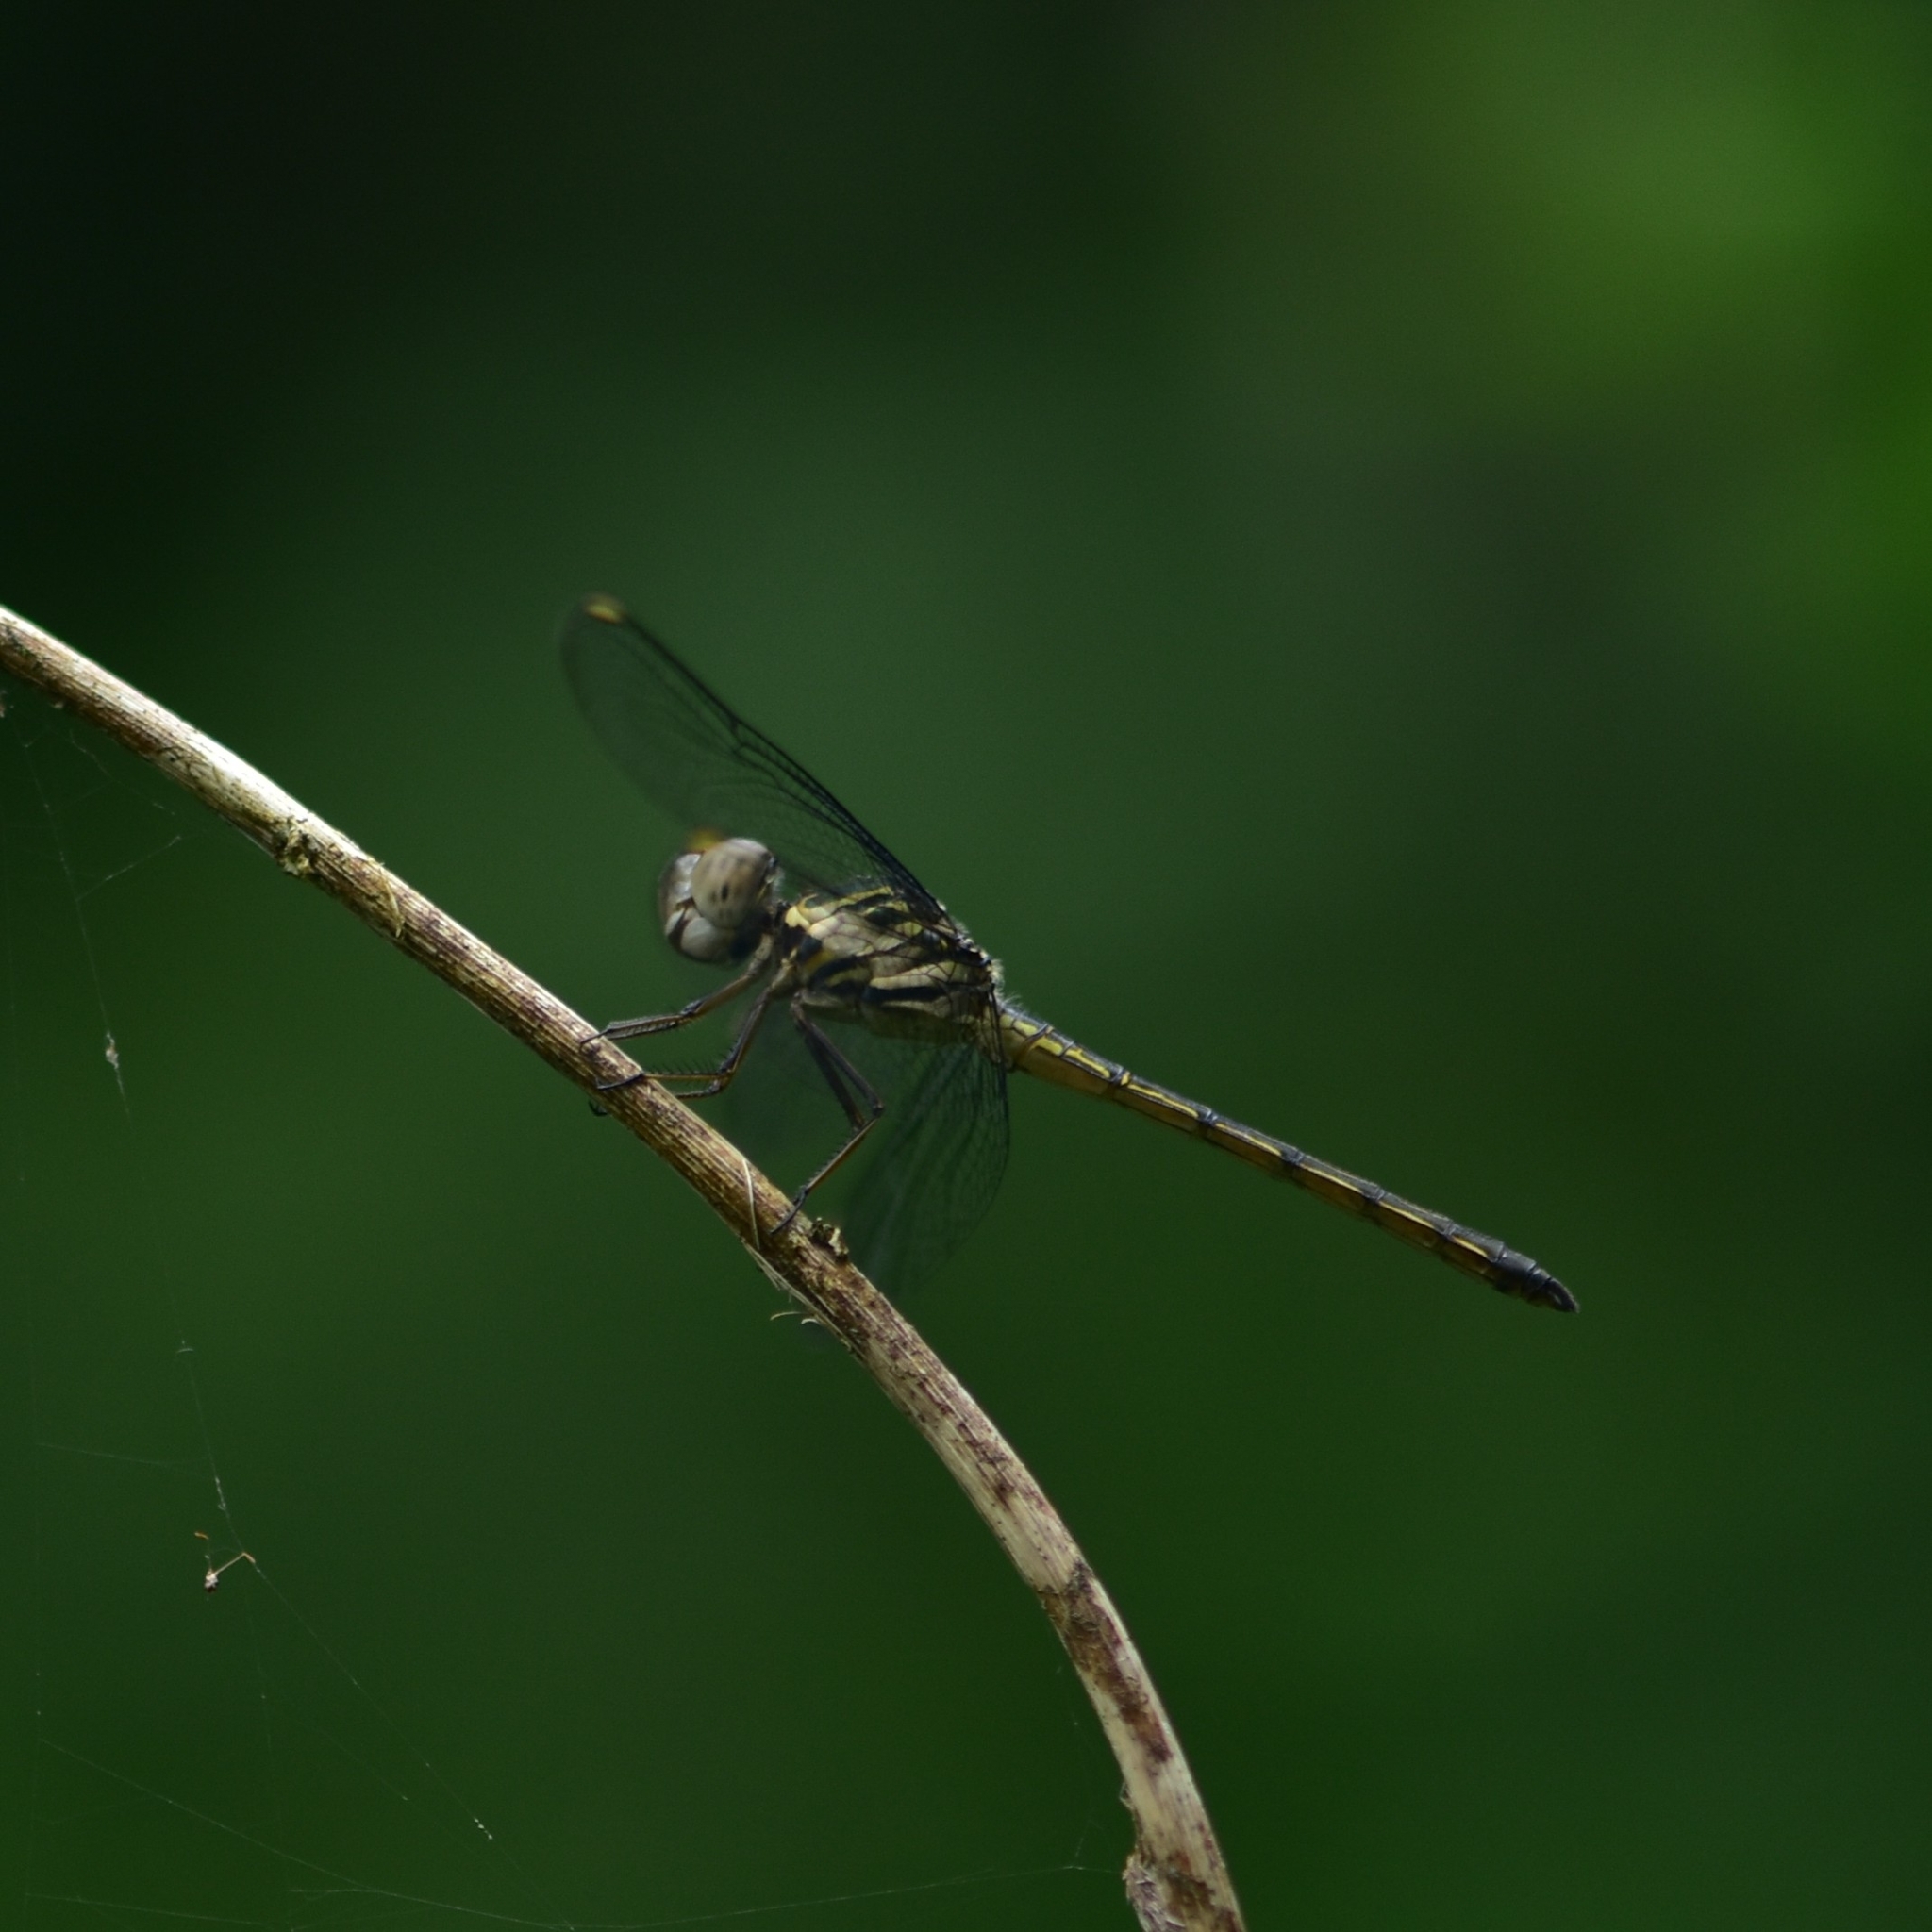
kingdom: Animalia
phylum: Arthropoda
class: Insecta
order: Odonata
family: Libellulidae
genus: Cratilla
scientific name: Cratilla lineata
